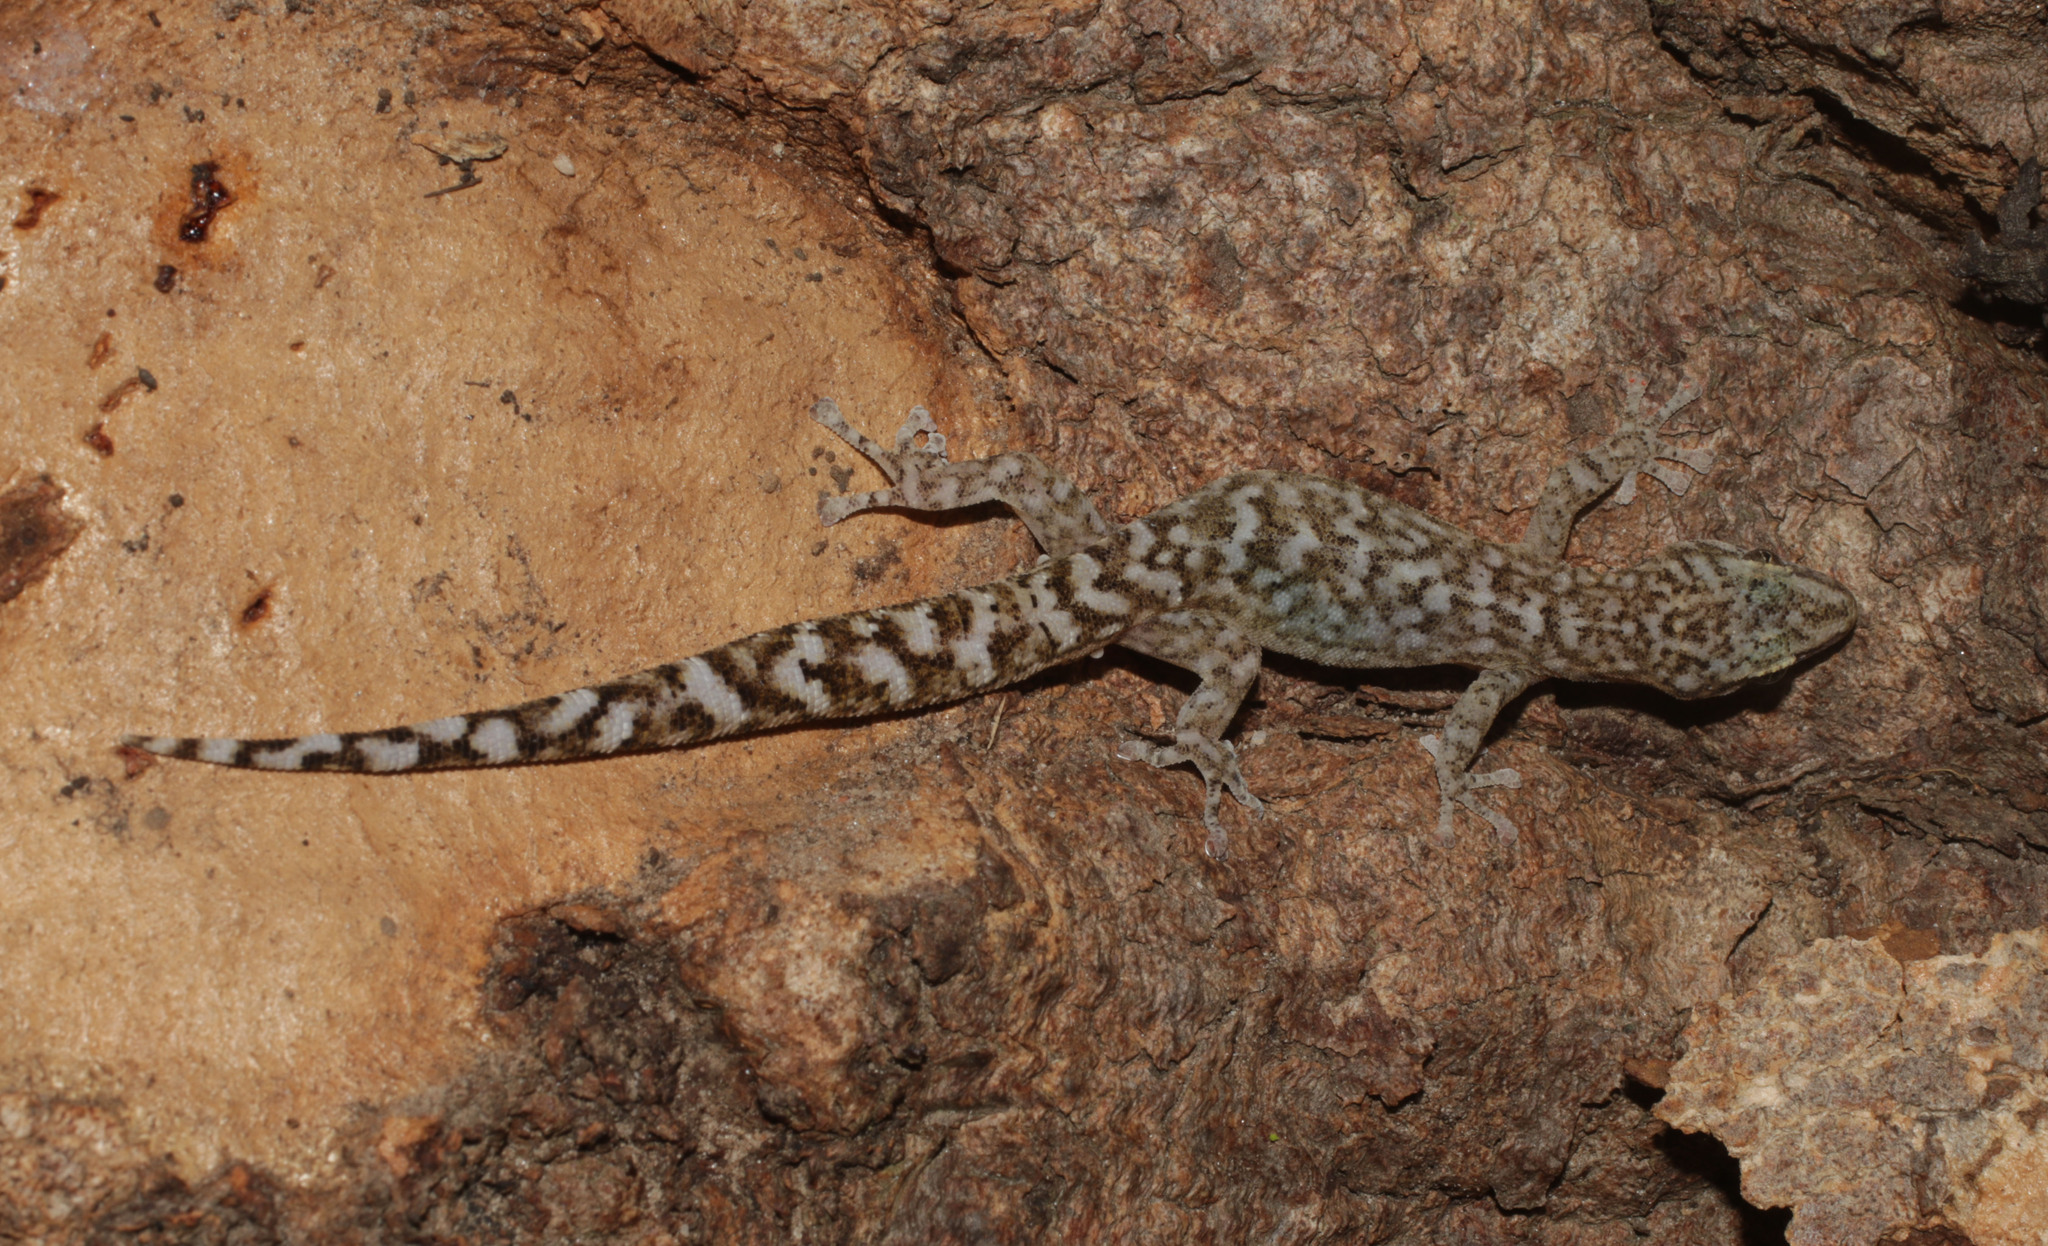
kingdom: Animalia
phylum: Chordata
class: Squamata
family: Gekkonidae
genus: Afrogecko
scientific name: Afrogecko porphyreus
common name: Marbled leaf-toed gecko
